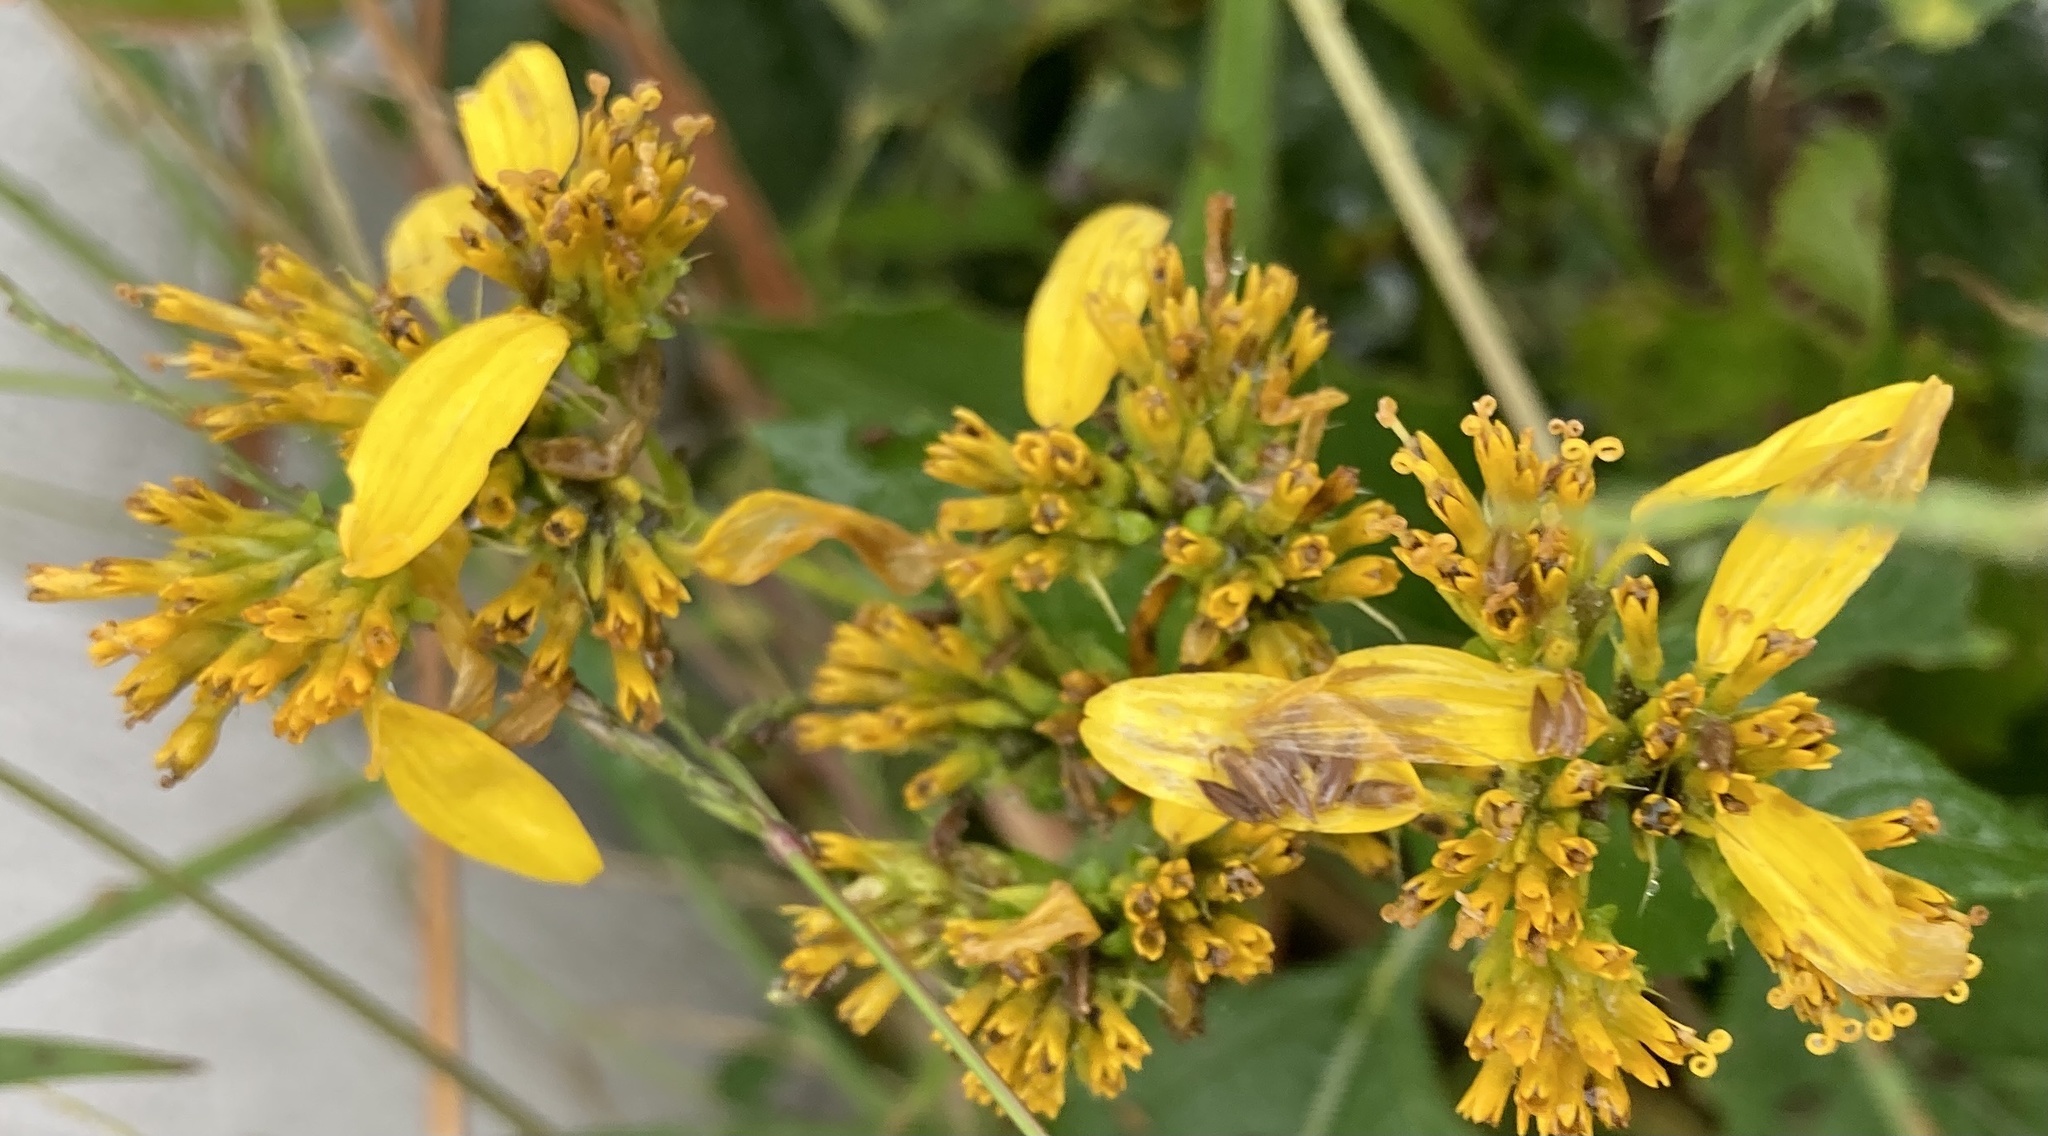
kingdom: Plantae
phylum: Tracheophyta
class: Magnoliopsida
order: Asterales
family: Asteraceae
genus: Verbesina
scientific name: Verbesina occidentalis
